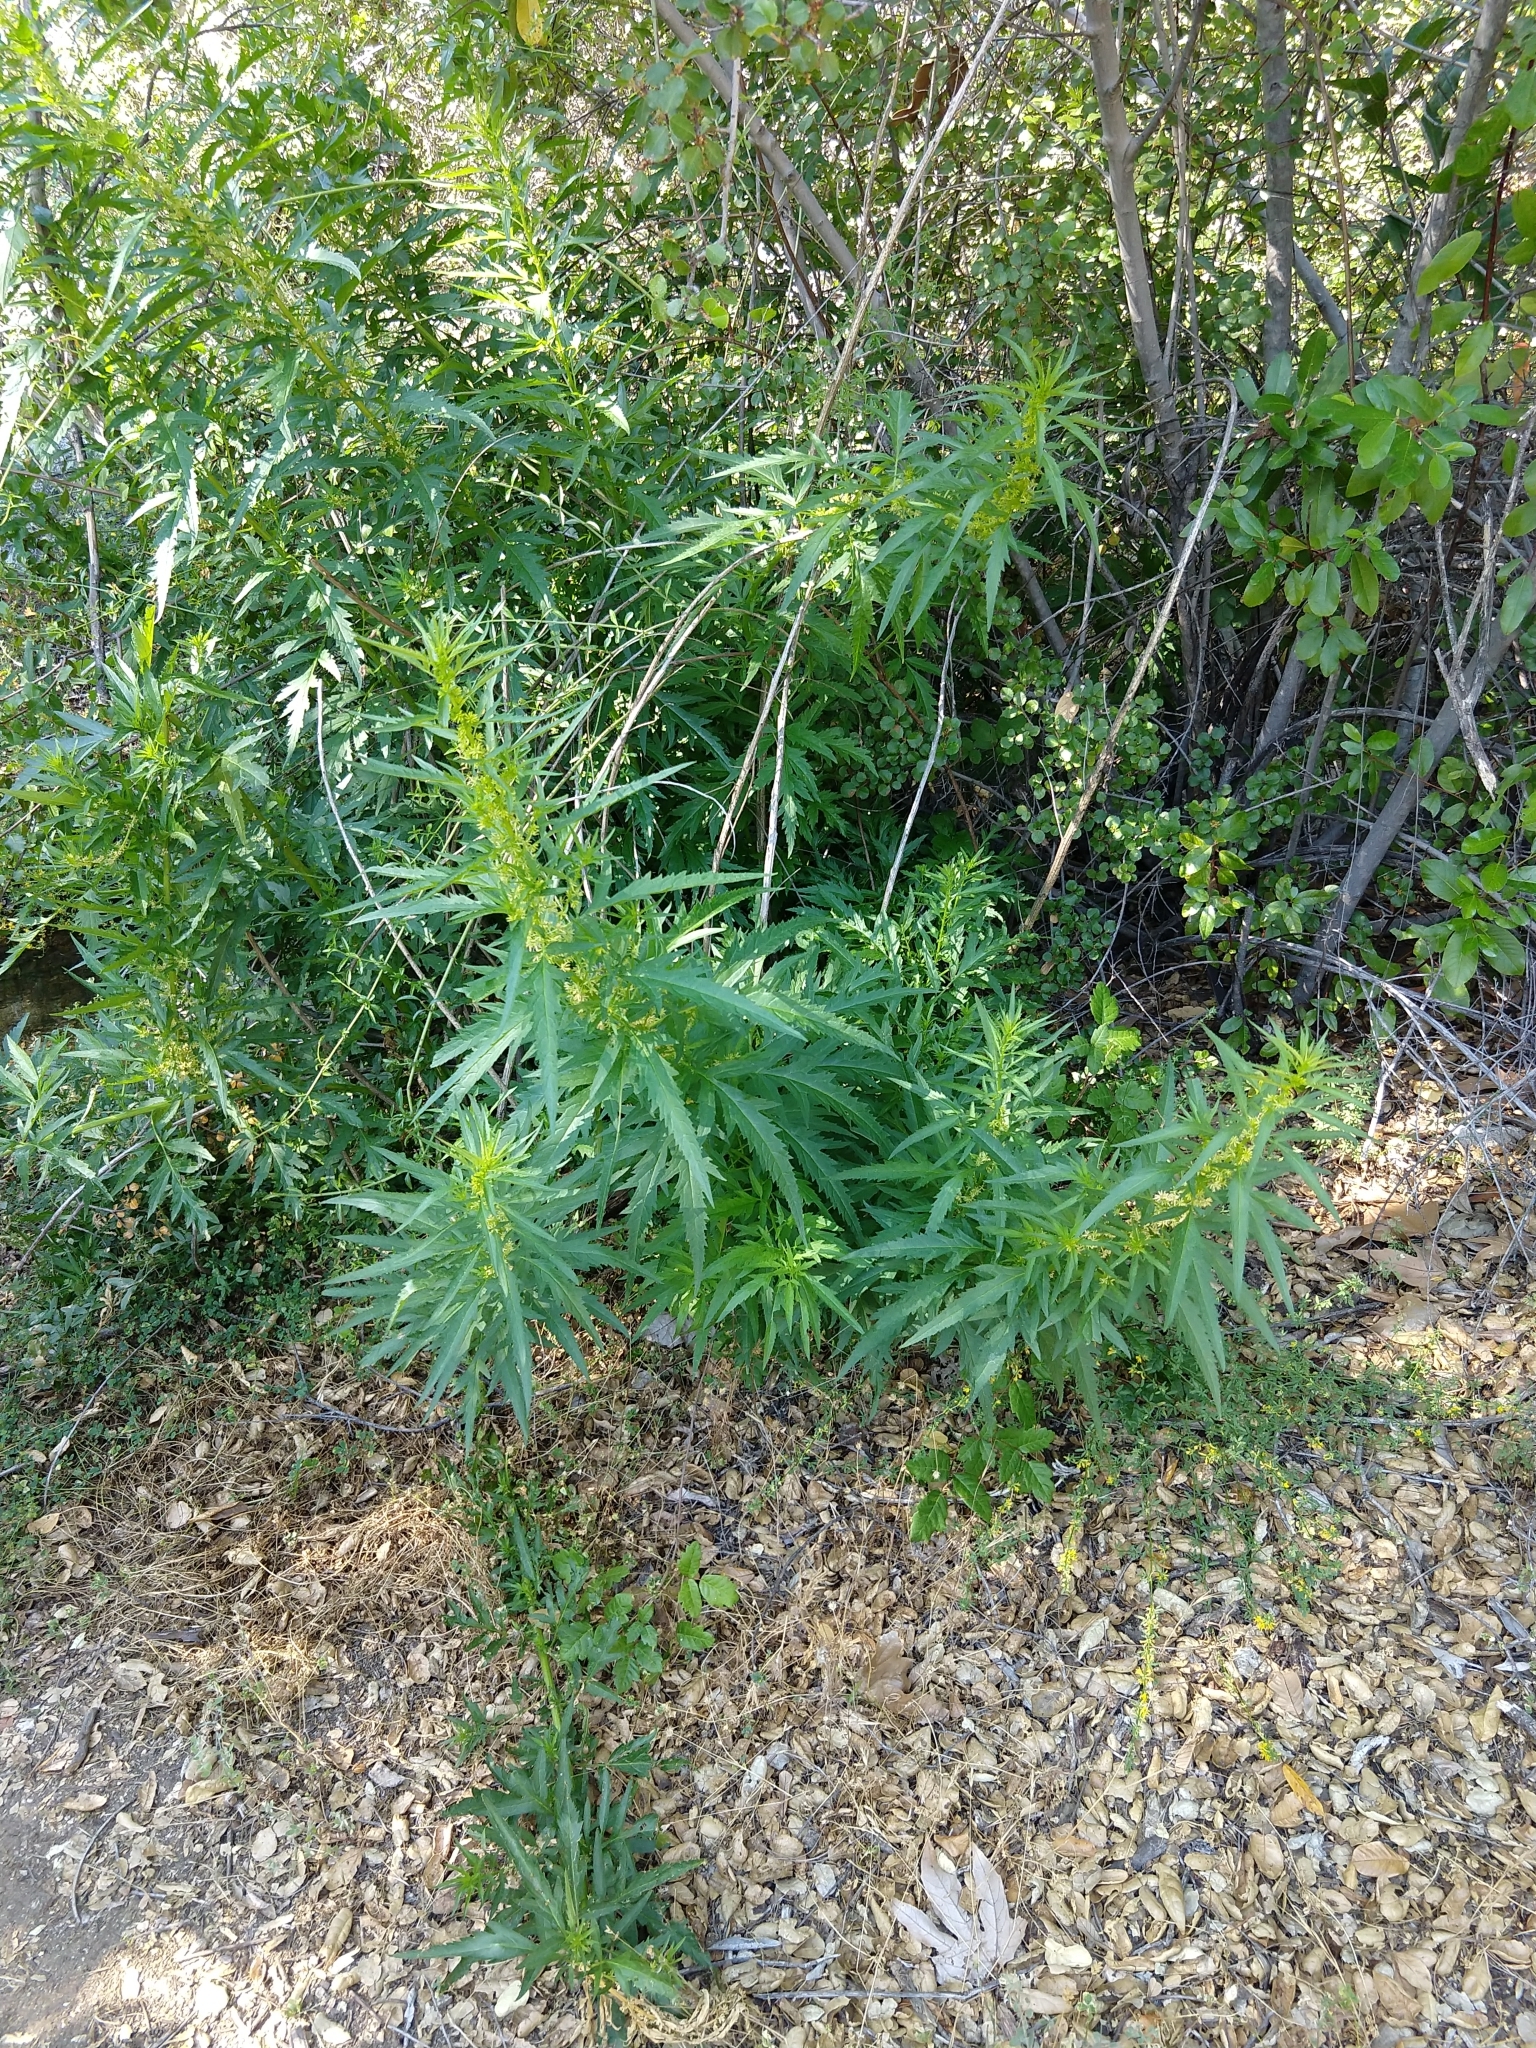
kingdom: Plantae
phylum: Tracheophyta
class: Magnoliopsida
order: Cucurbitales
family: Datiscaceae
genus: Datisca
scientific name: Datisca glomerata
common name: Durango-root
